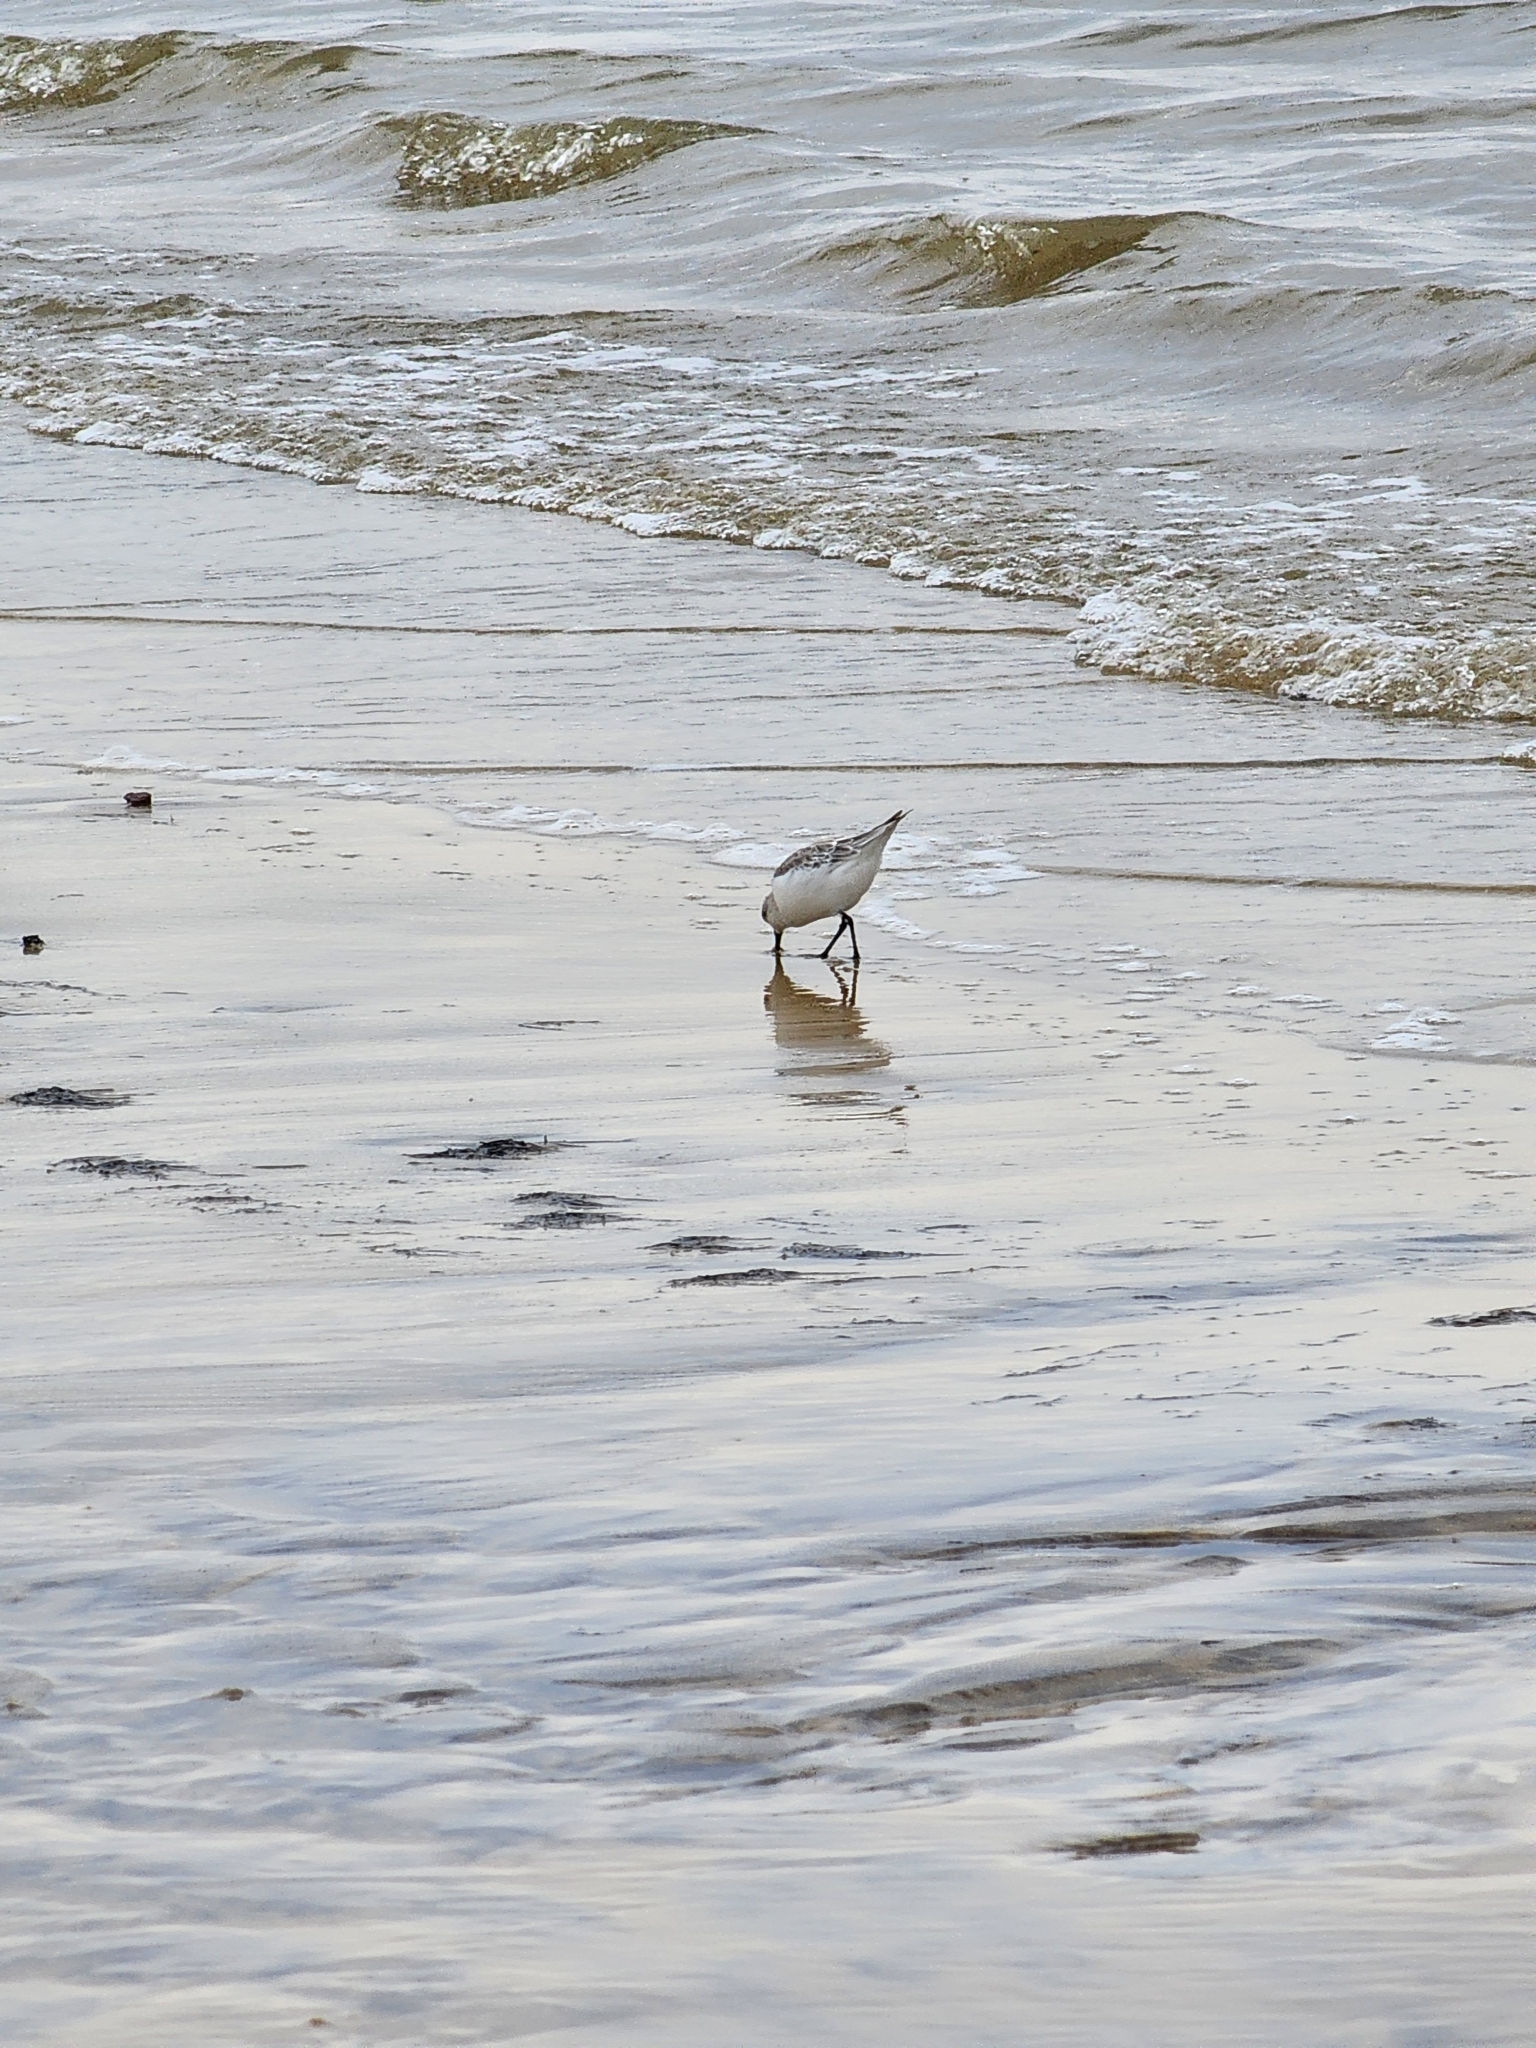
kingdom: Animalia
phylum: Chordata
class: Aves
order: Charadriiformes
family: Scolopacidae
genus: Calidris
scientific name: Calidris alba
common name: Sanderling
